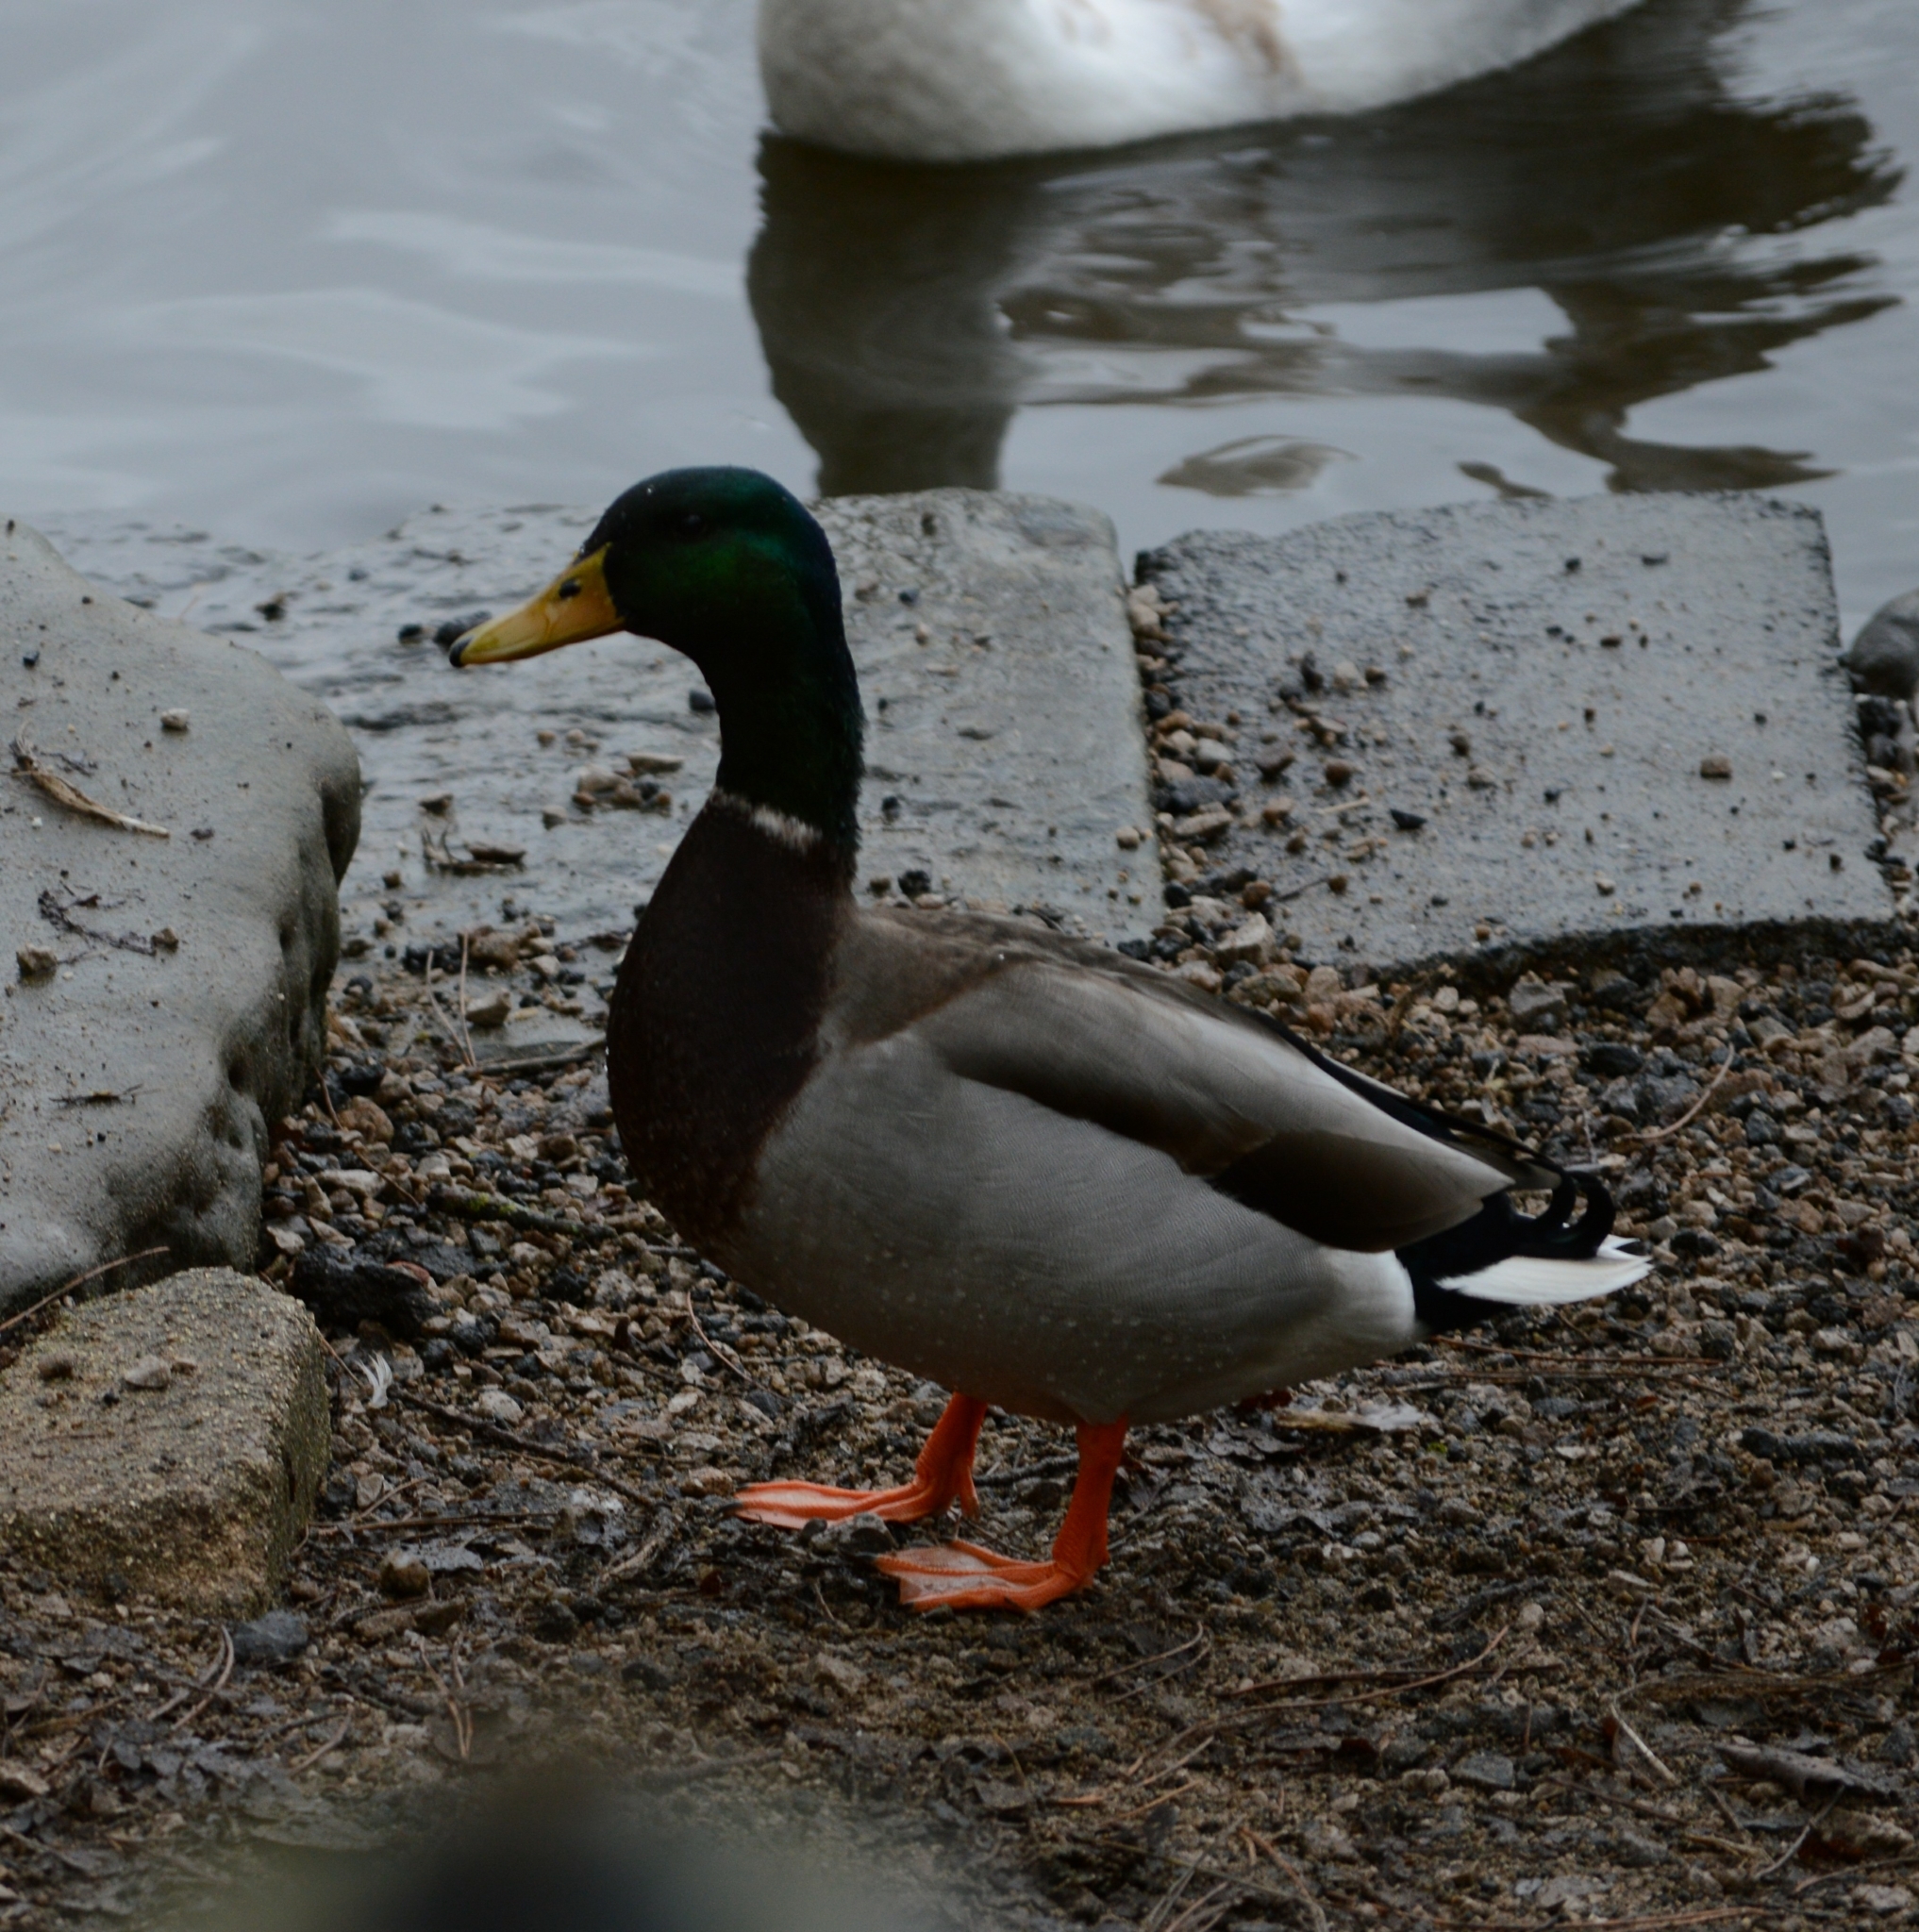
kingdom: Animalia
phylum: Chordata
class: Aves
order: Anseriformes
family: Anatidae
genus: Anas
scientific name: Anas platyrhynchos
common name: Mallard
